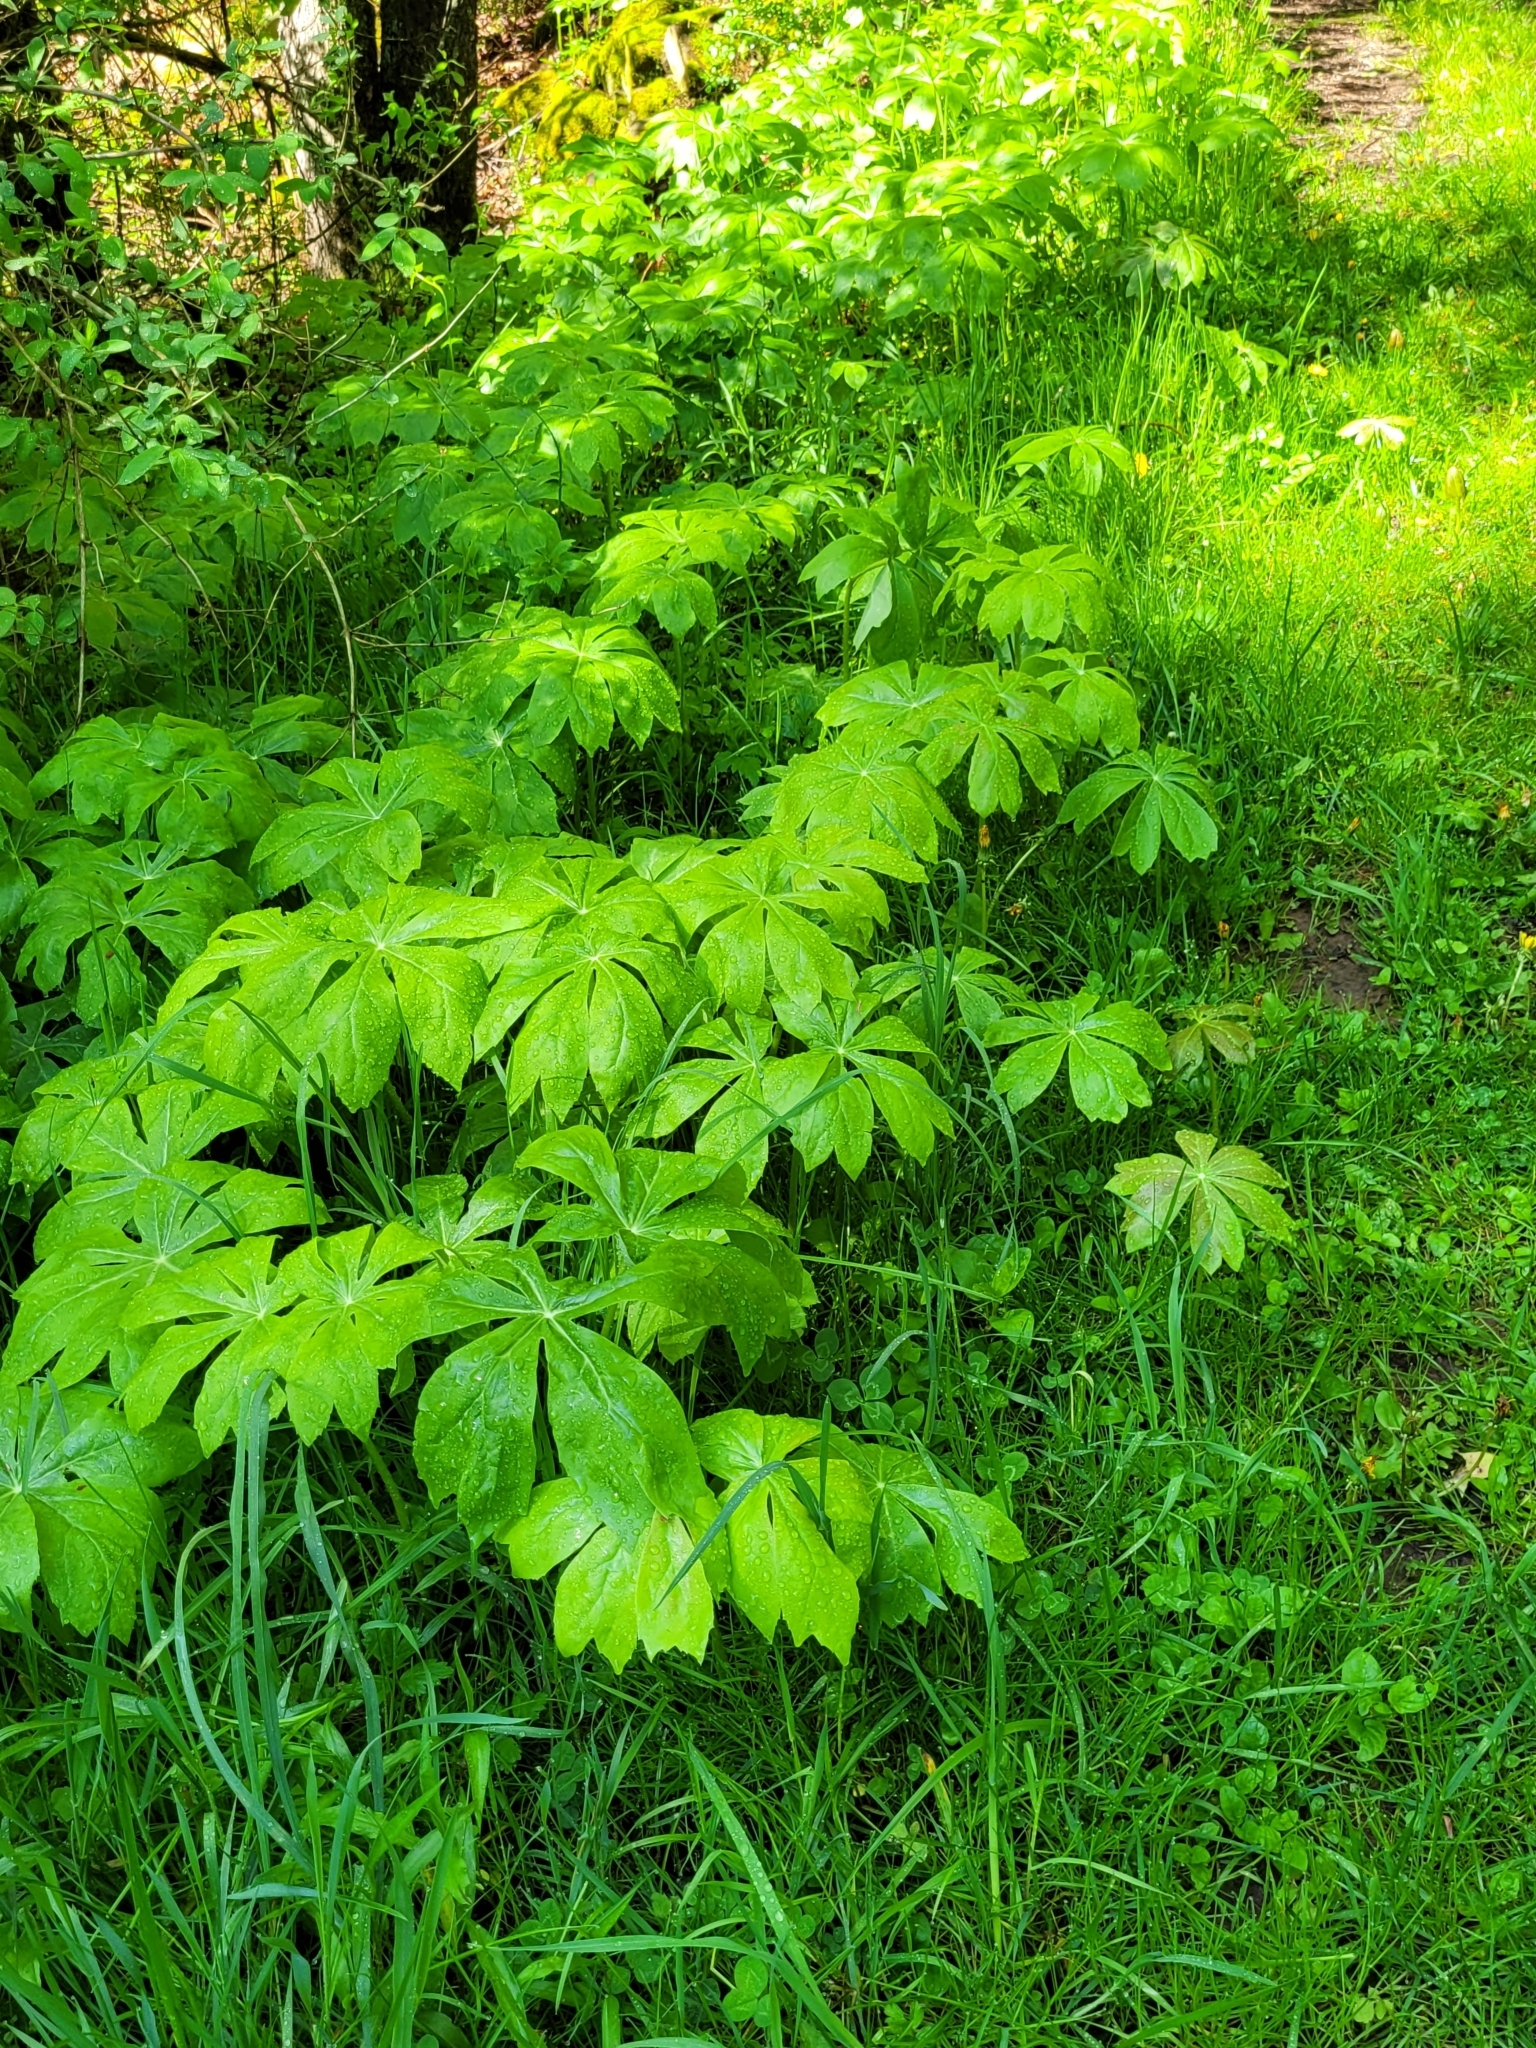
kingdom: Plantae
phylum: Tracheophyta
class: Magnoliopsida
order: Ranunculales
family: Berberidaceae
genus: Podophyllum
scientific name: Podophyllum peltatum
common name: Wild mandrake
